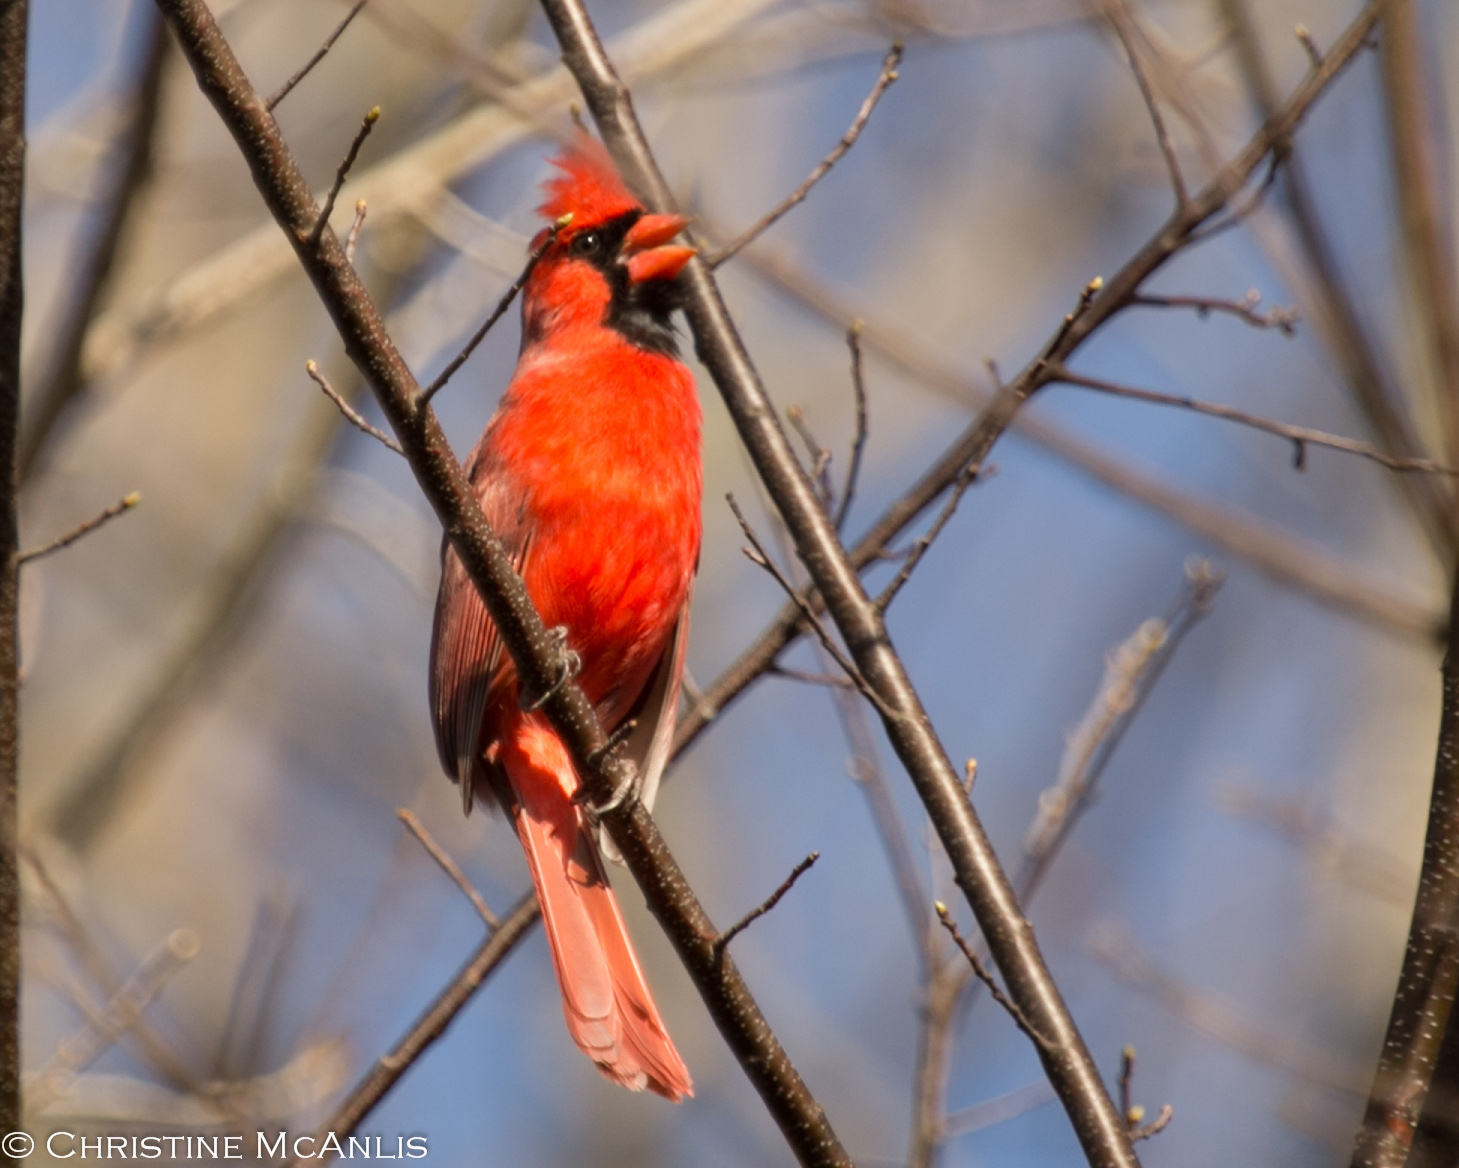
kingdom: Animalia
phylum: Chordata
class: Aves
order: Passeriformes
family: Cardinalidae
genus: Cardinalis
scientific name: Cardinalis cardinalis
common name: Northern cardinal
